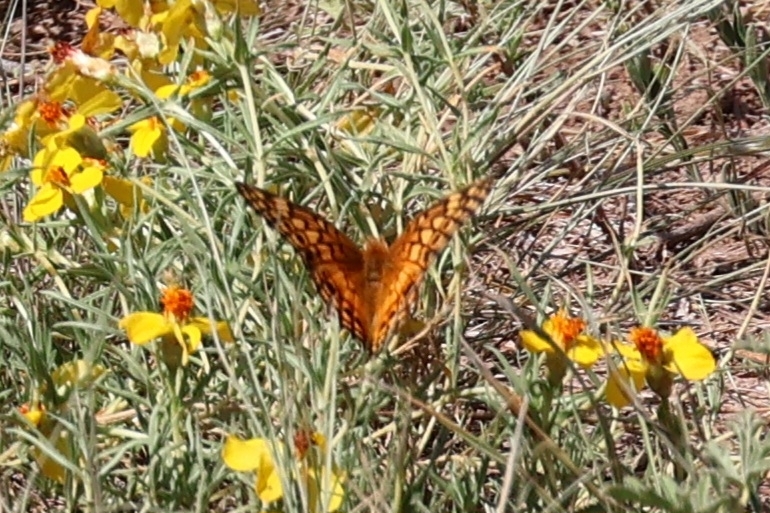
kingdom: Animalia
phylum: Arthropoda
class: Insecta
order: Lepidoptera
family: Nymphalidae
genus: Euptoieta
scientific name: Euptoieta claudia
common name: Variegated fritillary
